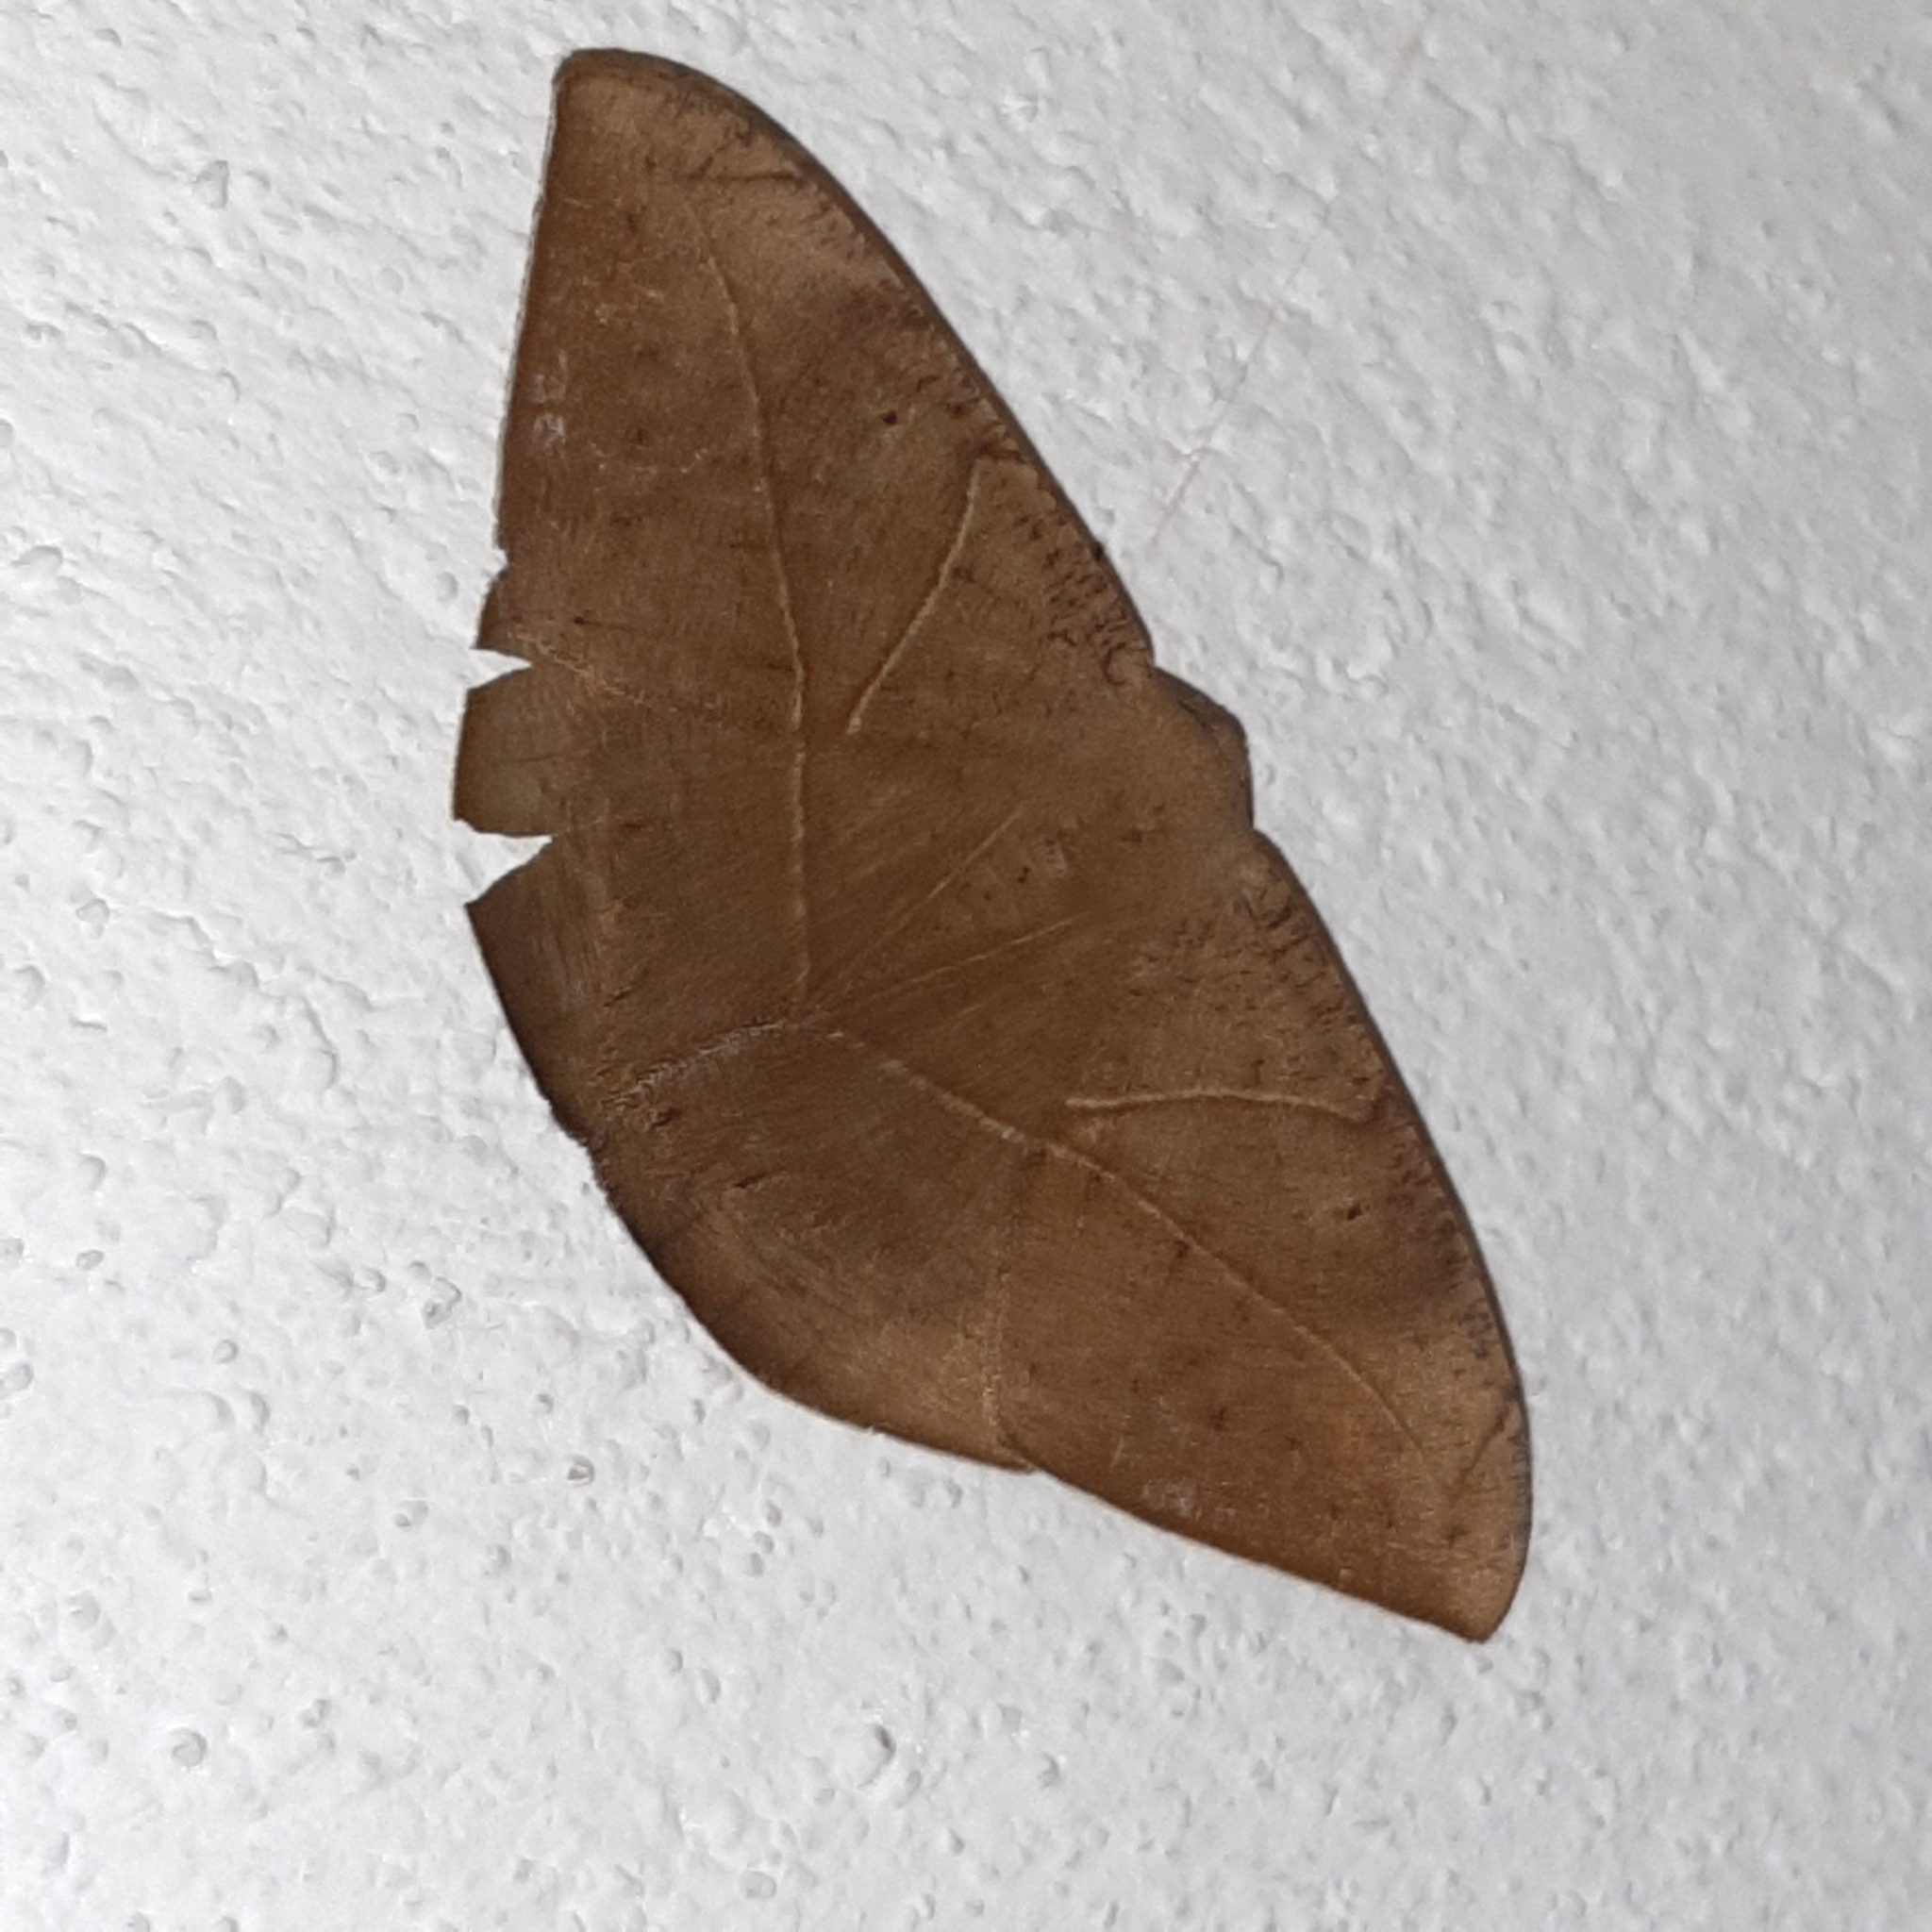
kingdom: Animalia
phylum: Arthropoda
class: Insecta
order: Lepidoptera
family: Geometridae
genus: Oxydia
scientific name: Oxydia trychiata
